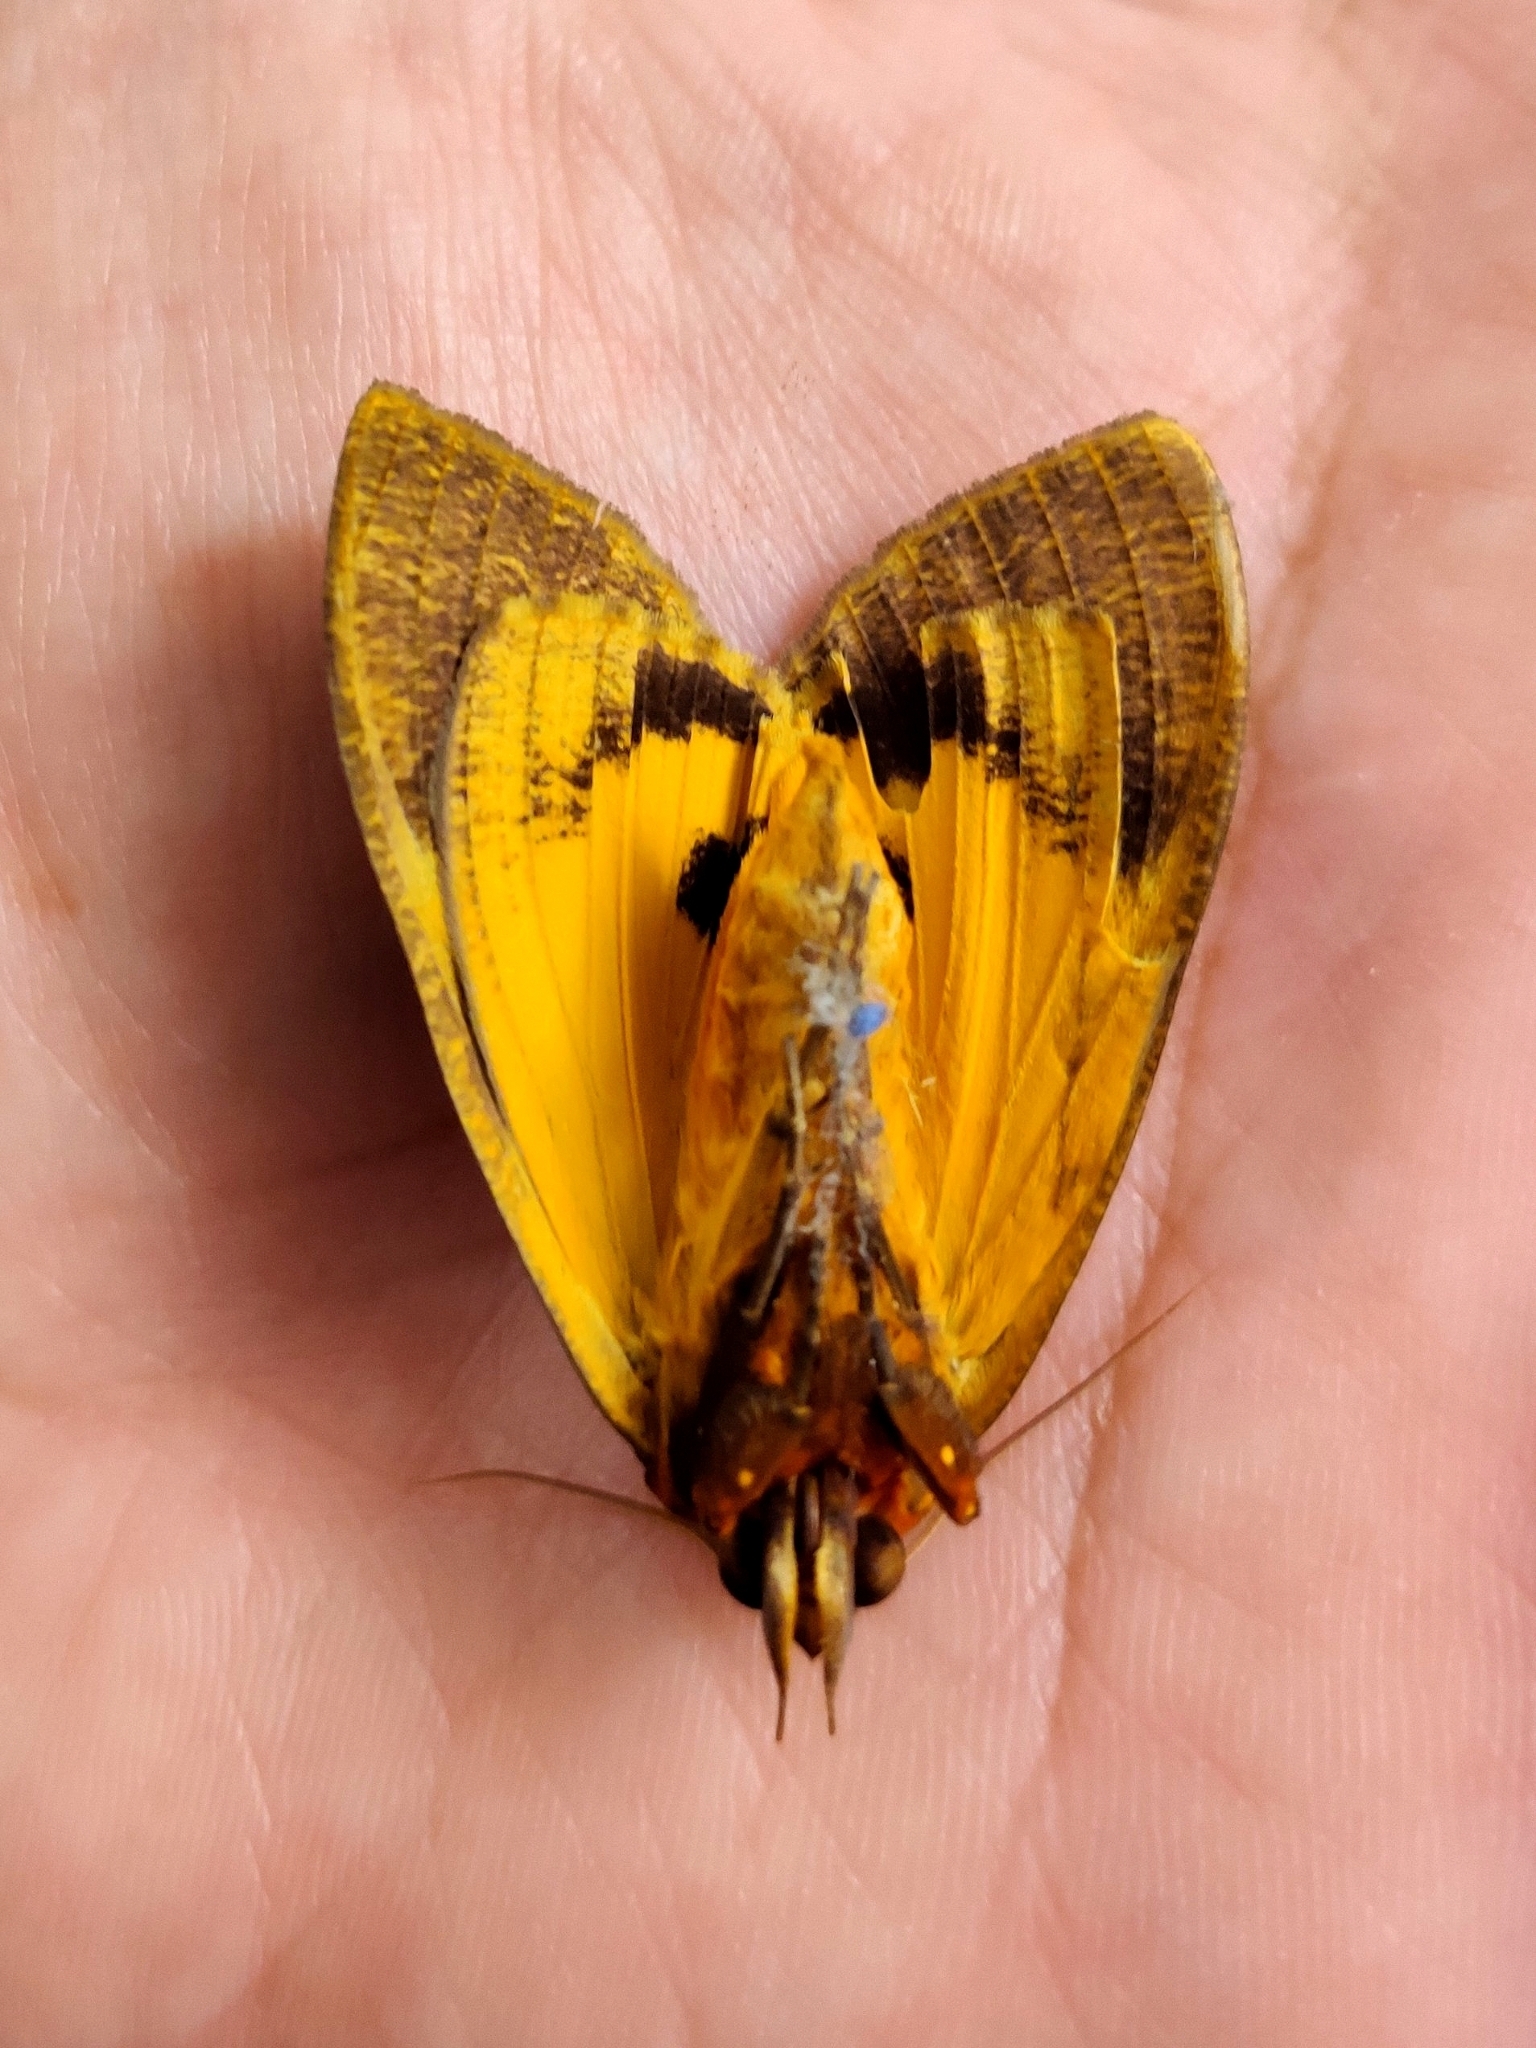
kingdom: Animalia
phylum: Arthropoda
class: Insecta
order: Lepidoptera
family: Erebidae
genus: Eudocima
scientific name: Eudocima homaena
